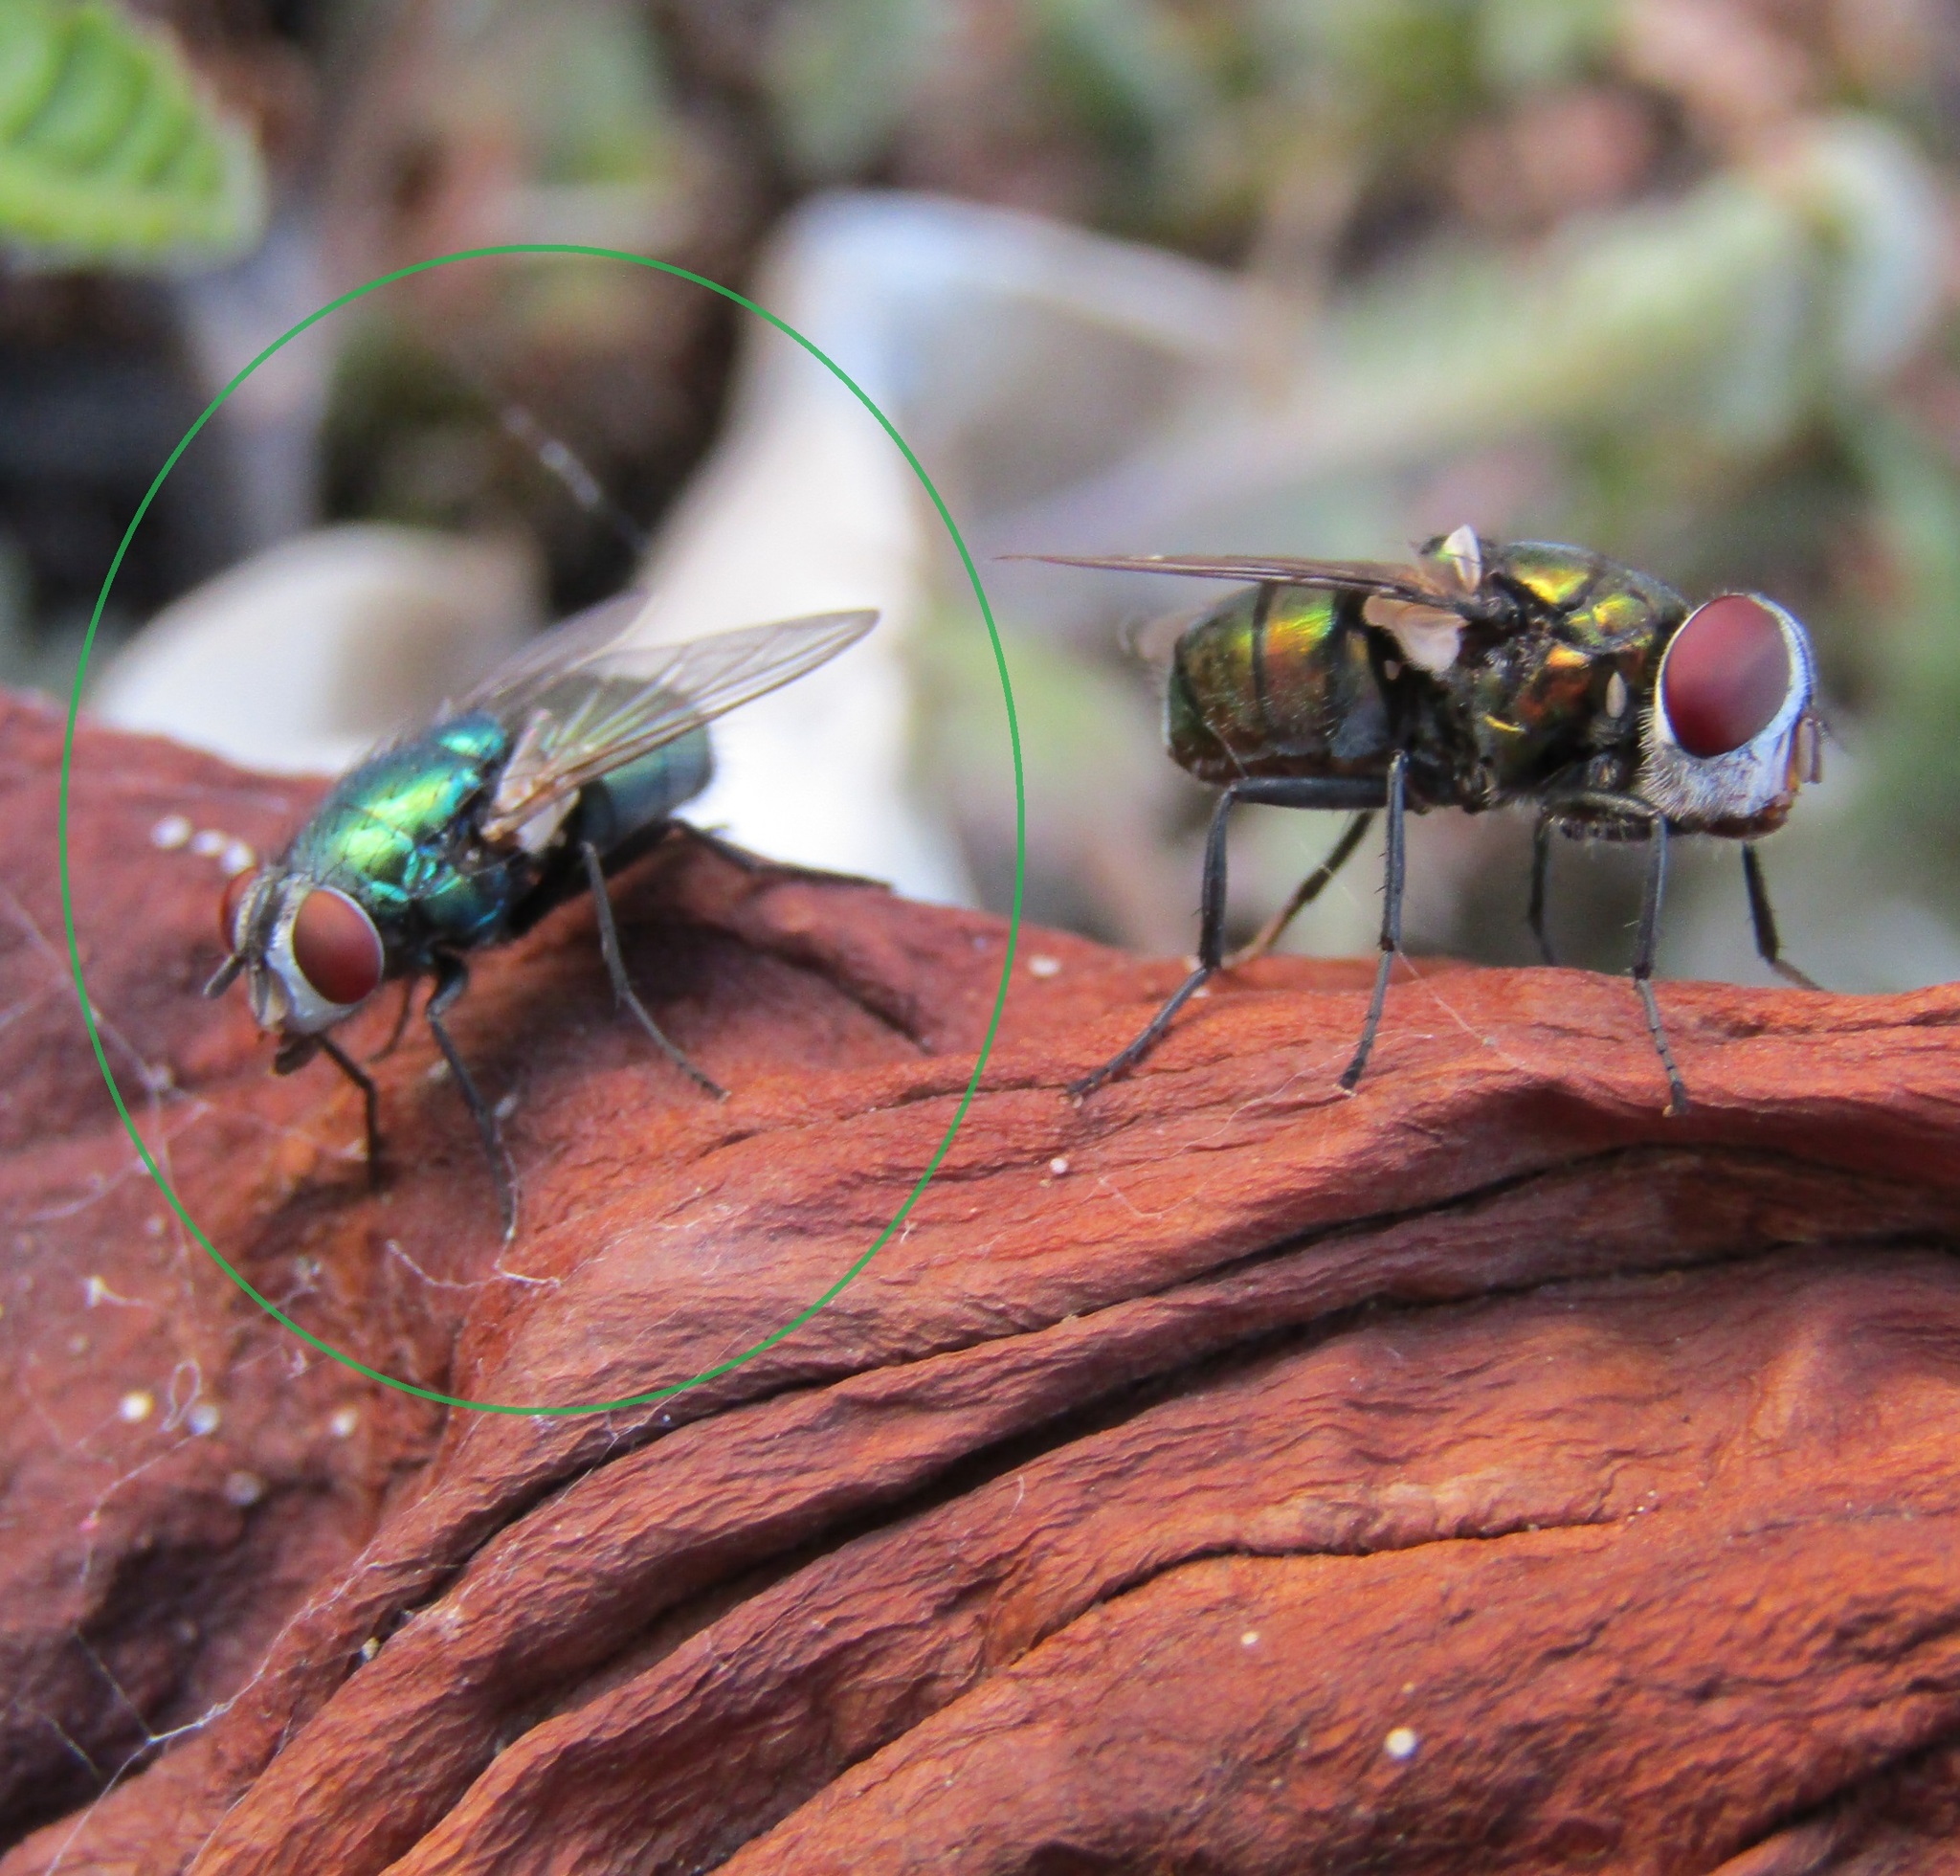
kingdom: Animalia
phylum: Arthropoda
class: Insecta
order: Diptera
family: Calliphoridae
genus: Lucilia
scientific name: Lucilia sericata
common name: Blow fly
